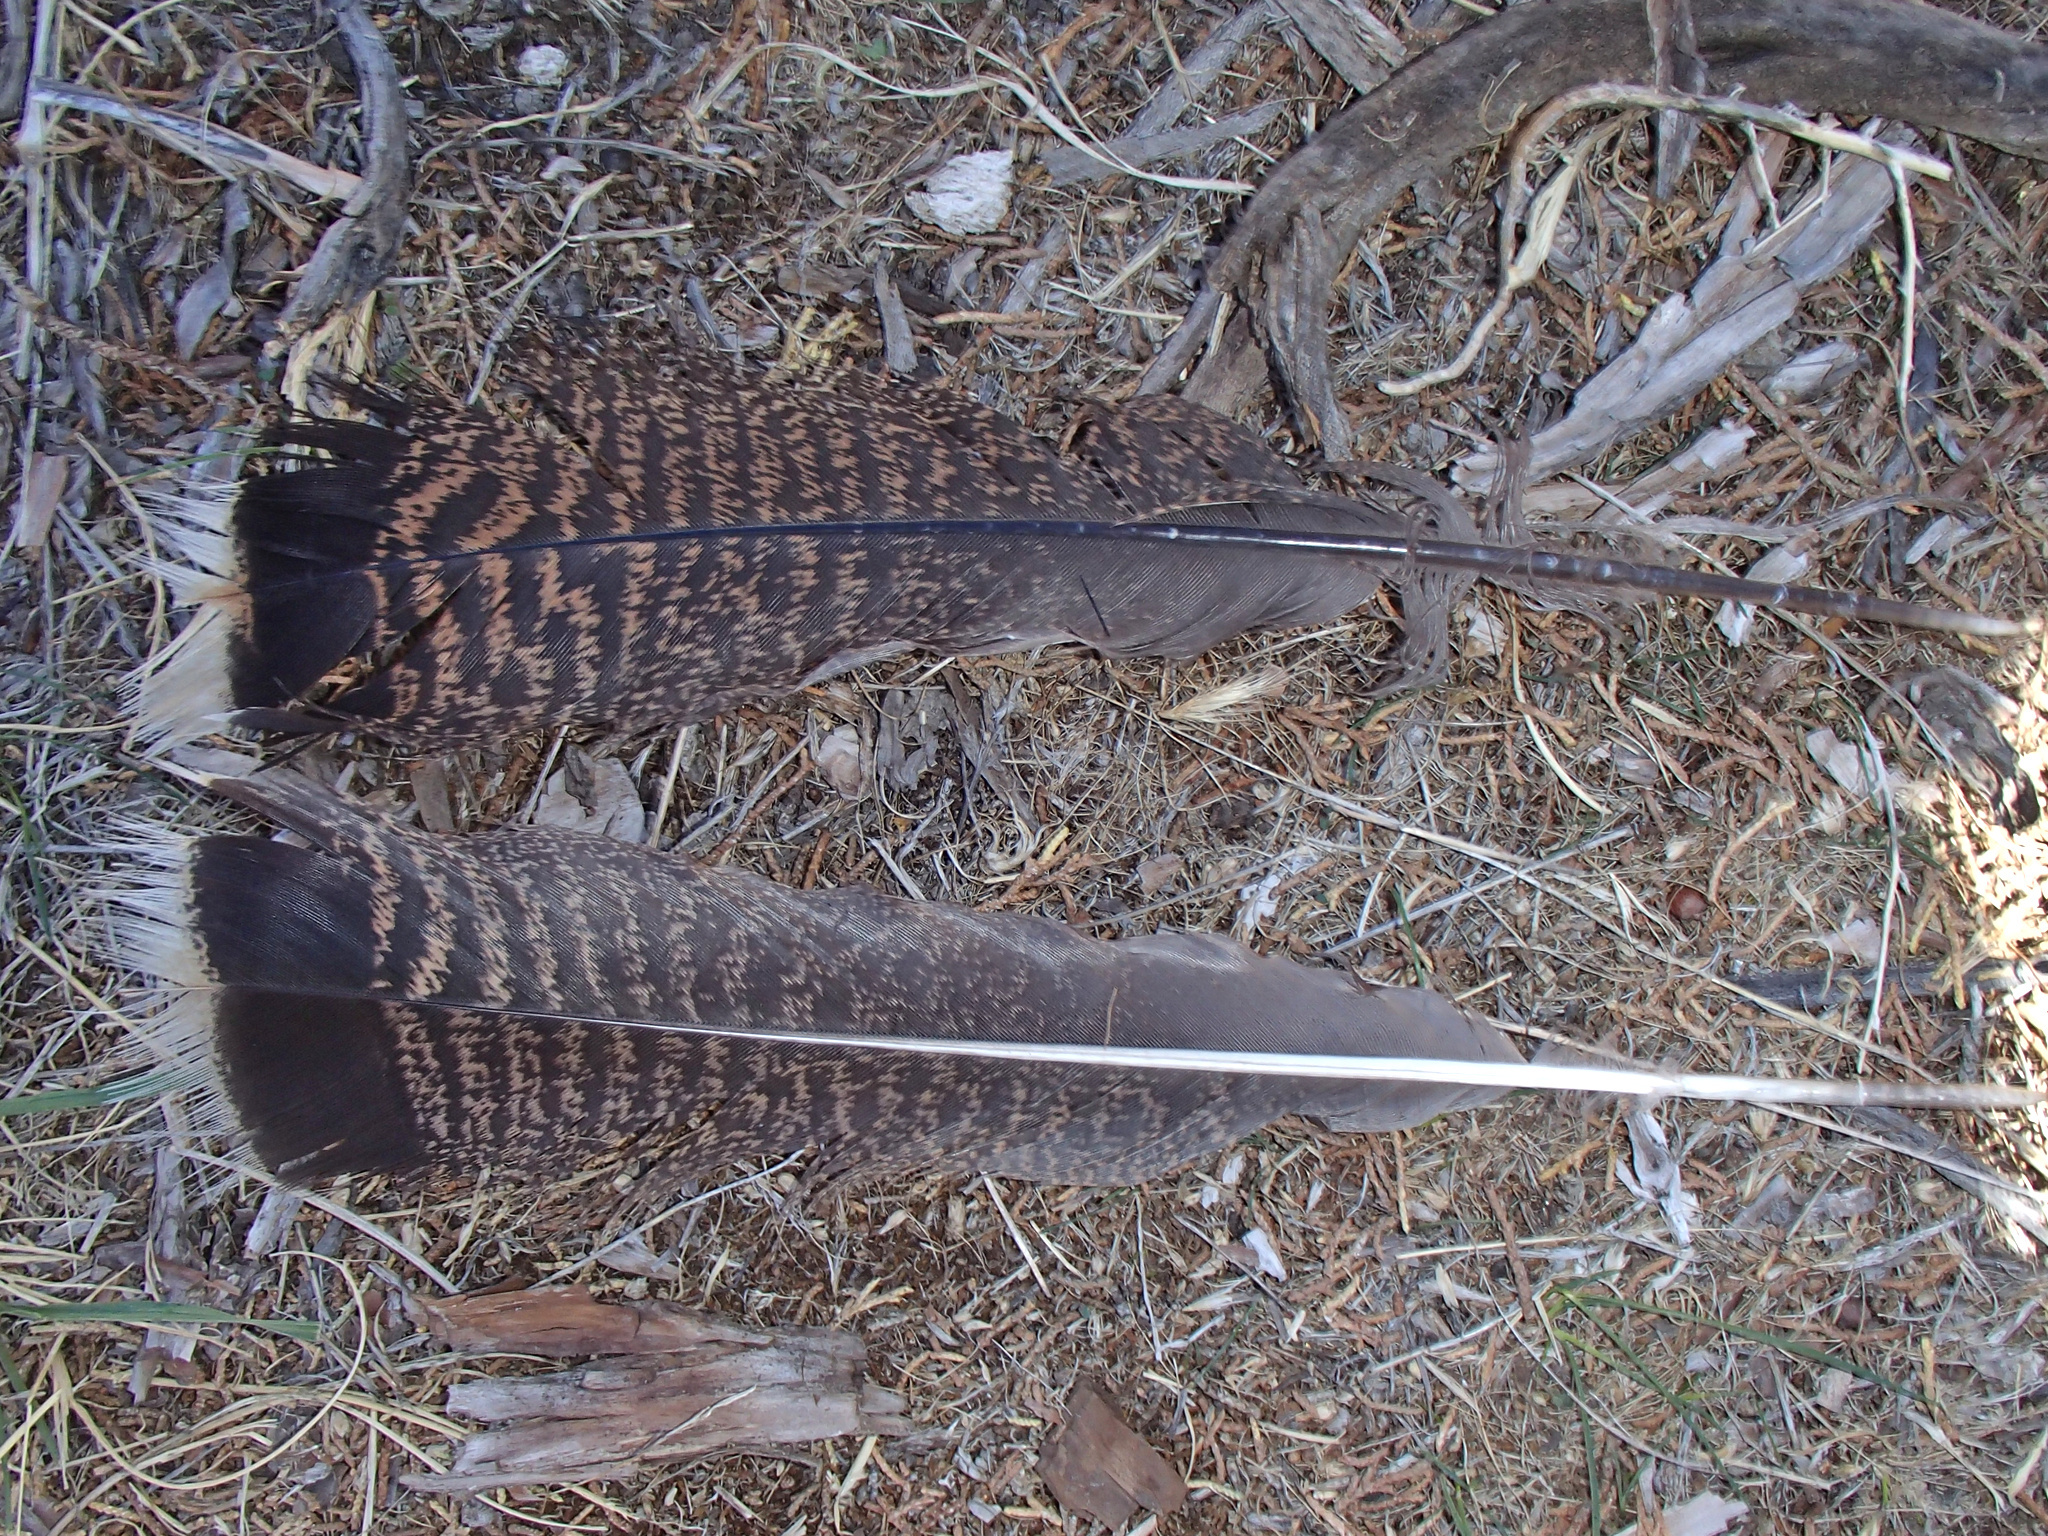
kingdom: Animalia
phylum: Chordata
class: Aves
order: Galliformes
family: Phasianidae
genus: Meleagris
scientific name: Meleagris gallopavo
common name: Wild turkey
